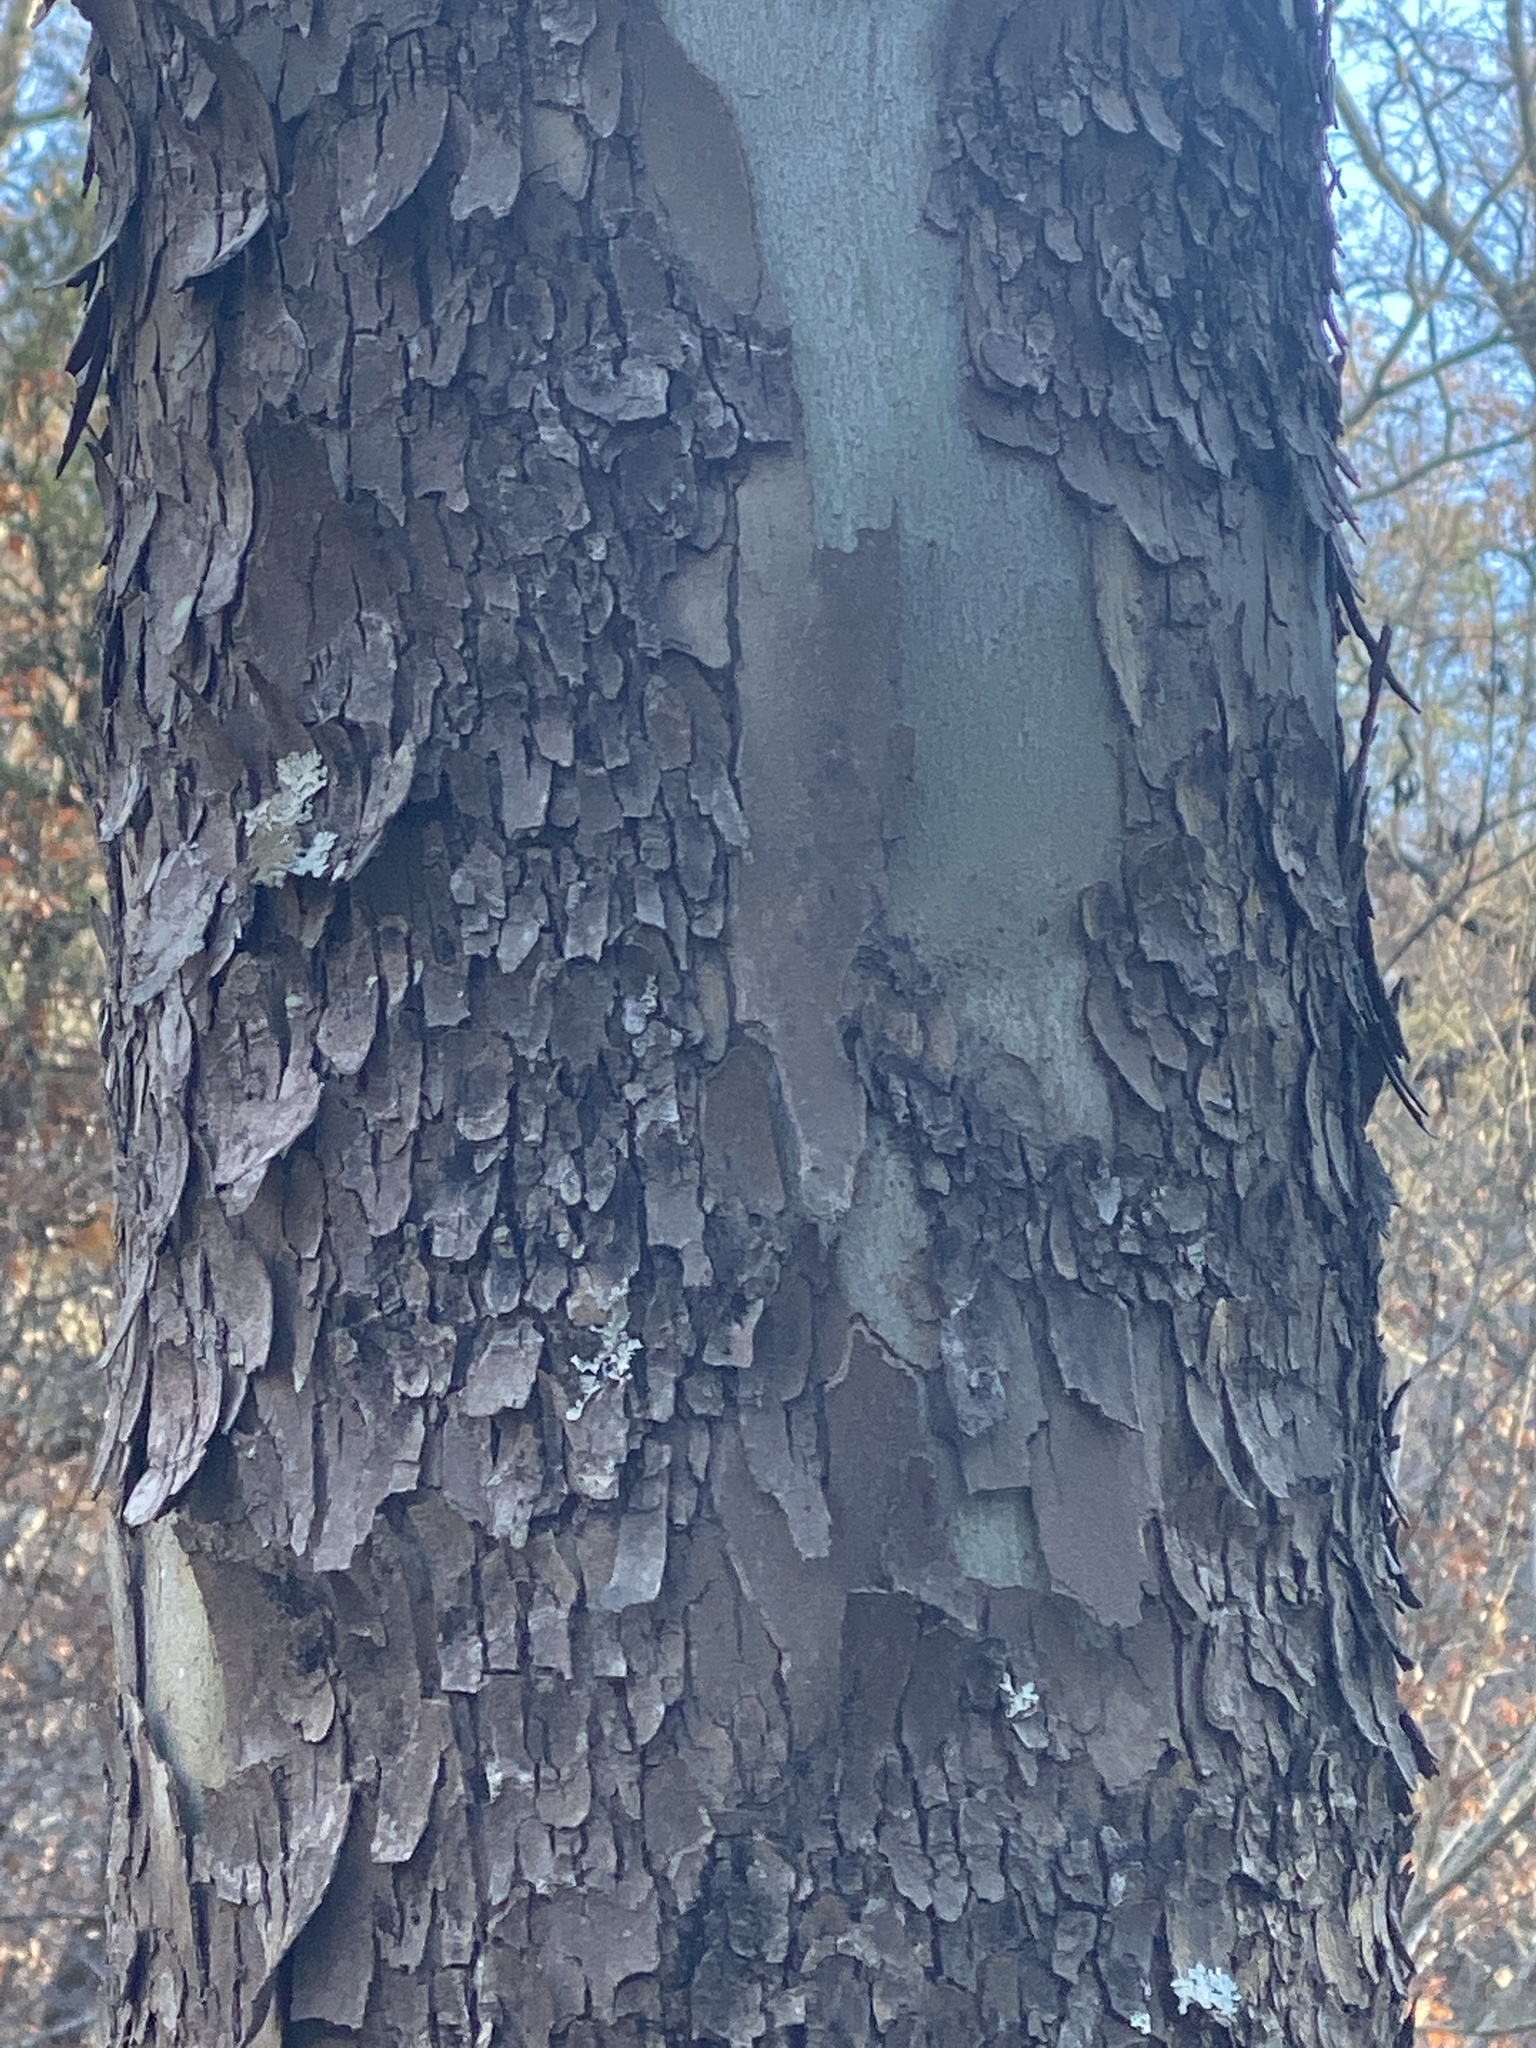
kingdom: Plantae
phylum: Tracheophyta
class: Magnoliopsida
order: Proteales
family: Platanaceae
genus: Platanus
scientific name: Platanus occidentalis
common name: American sycamore
